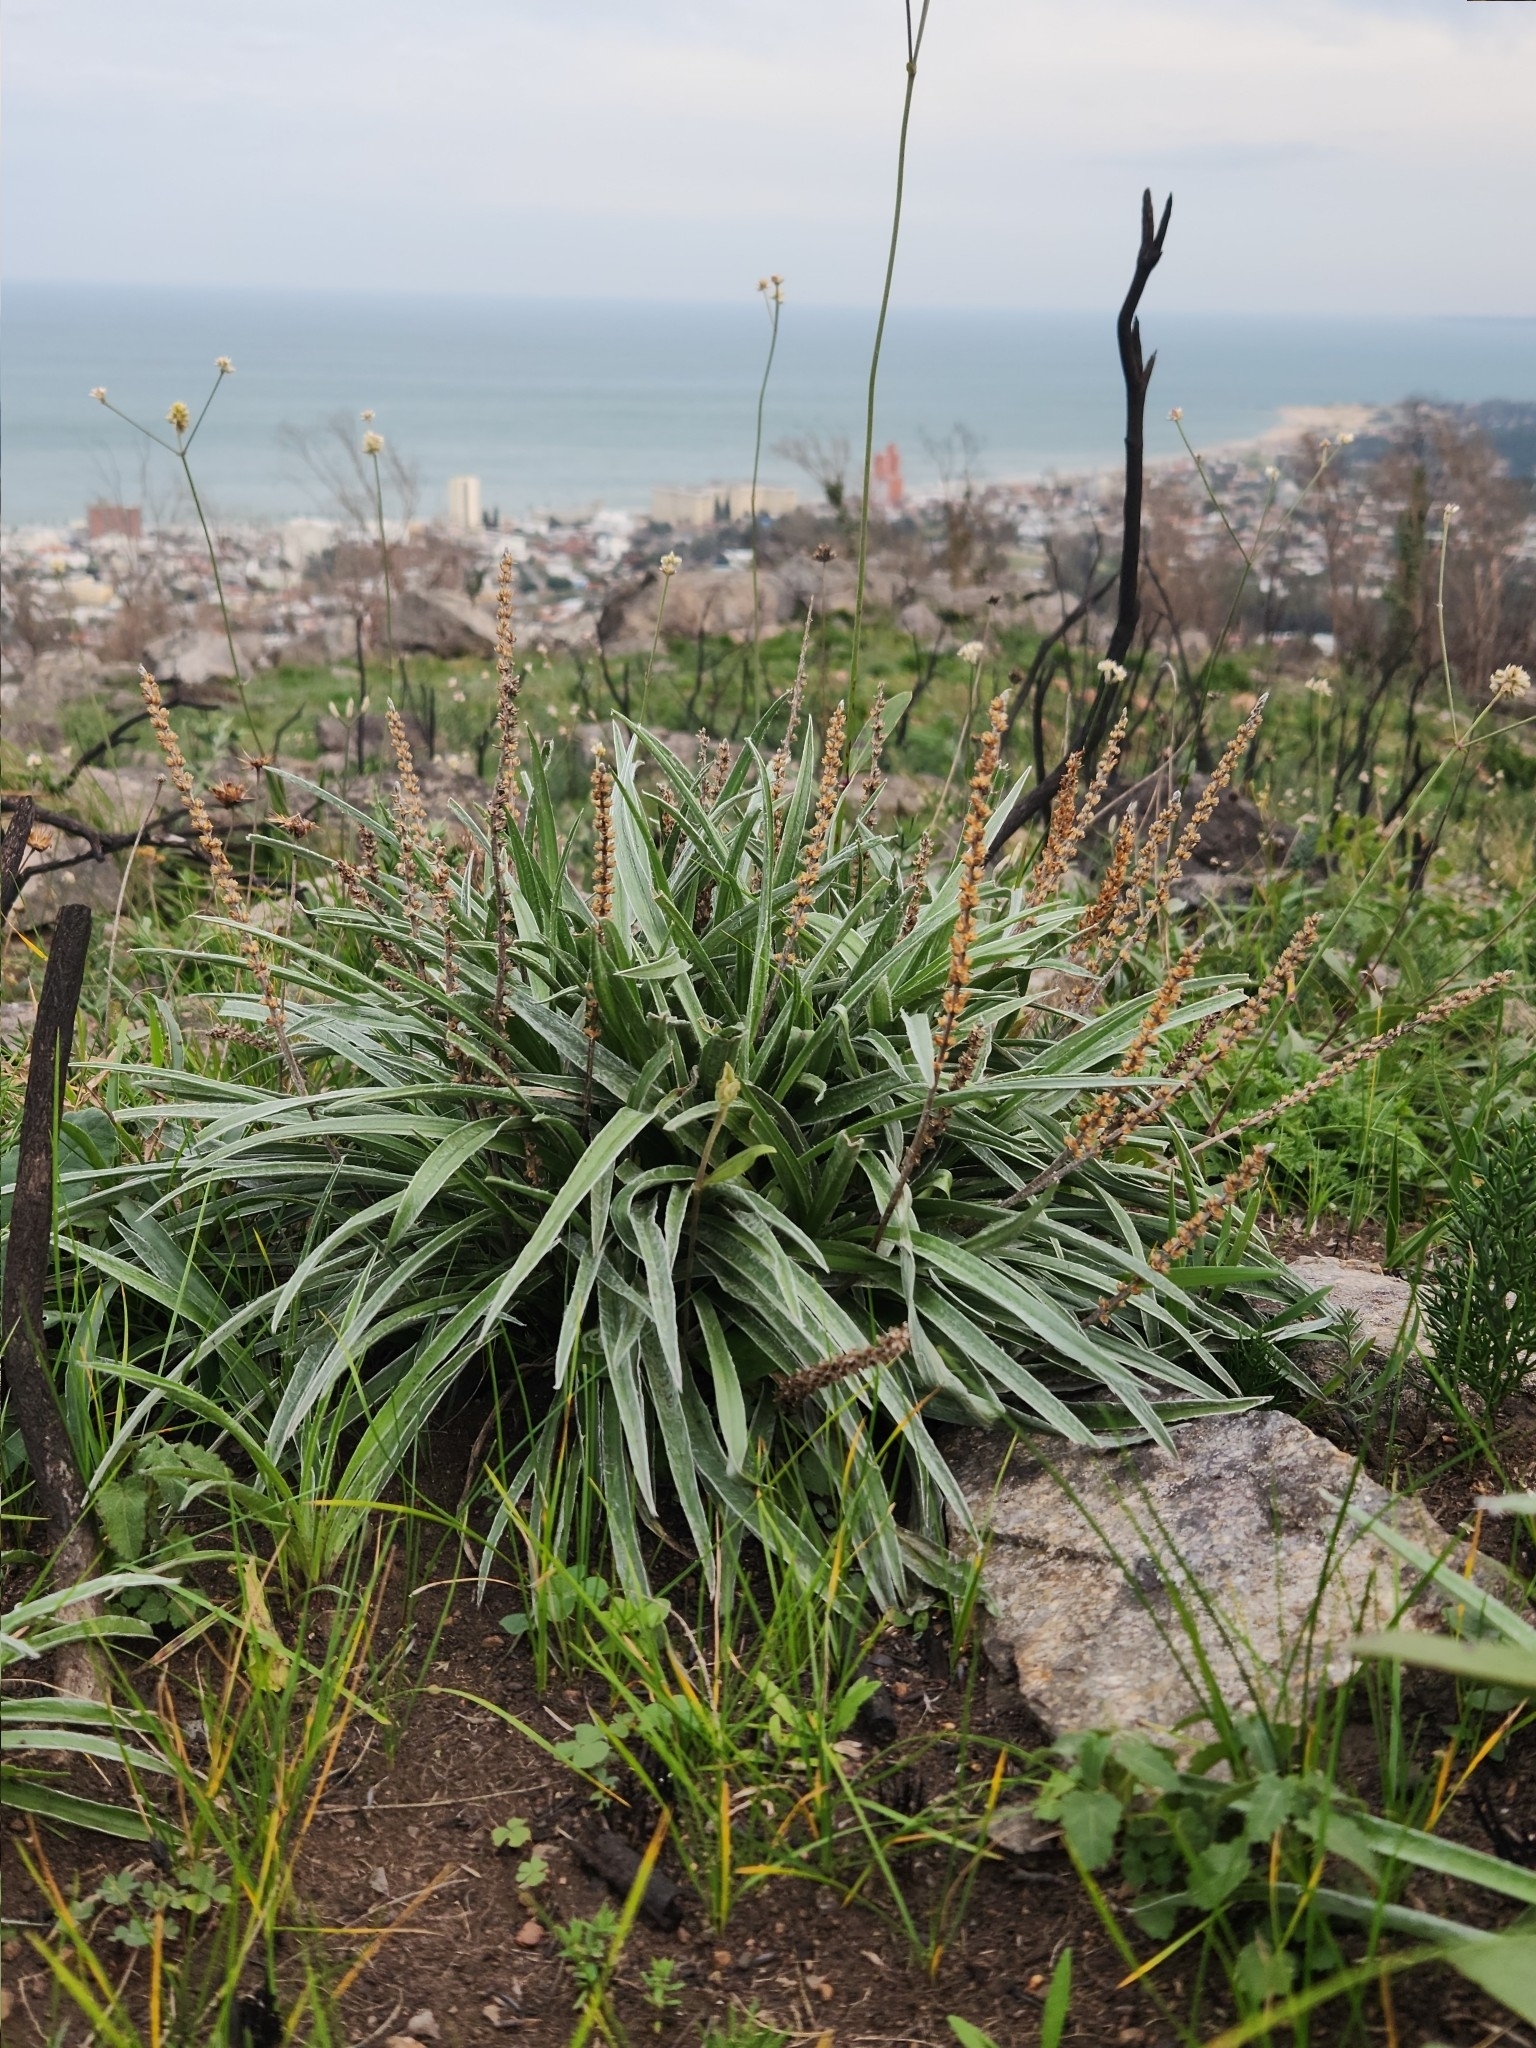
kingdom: Plantae
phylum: Tracheophyta
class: Magnoliopsida
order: Lamiales
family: Plantaginaceae
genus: Plantago
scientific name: Plantago commersoniana
